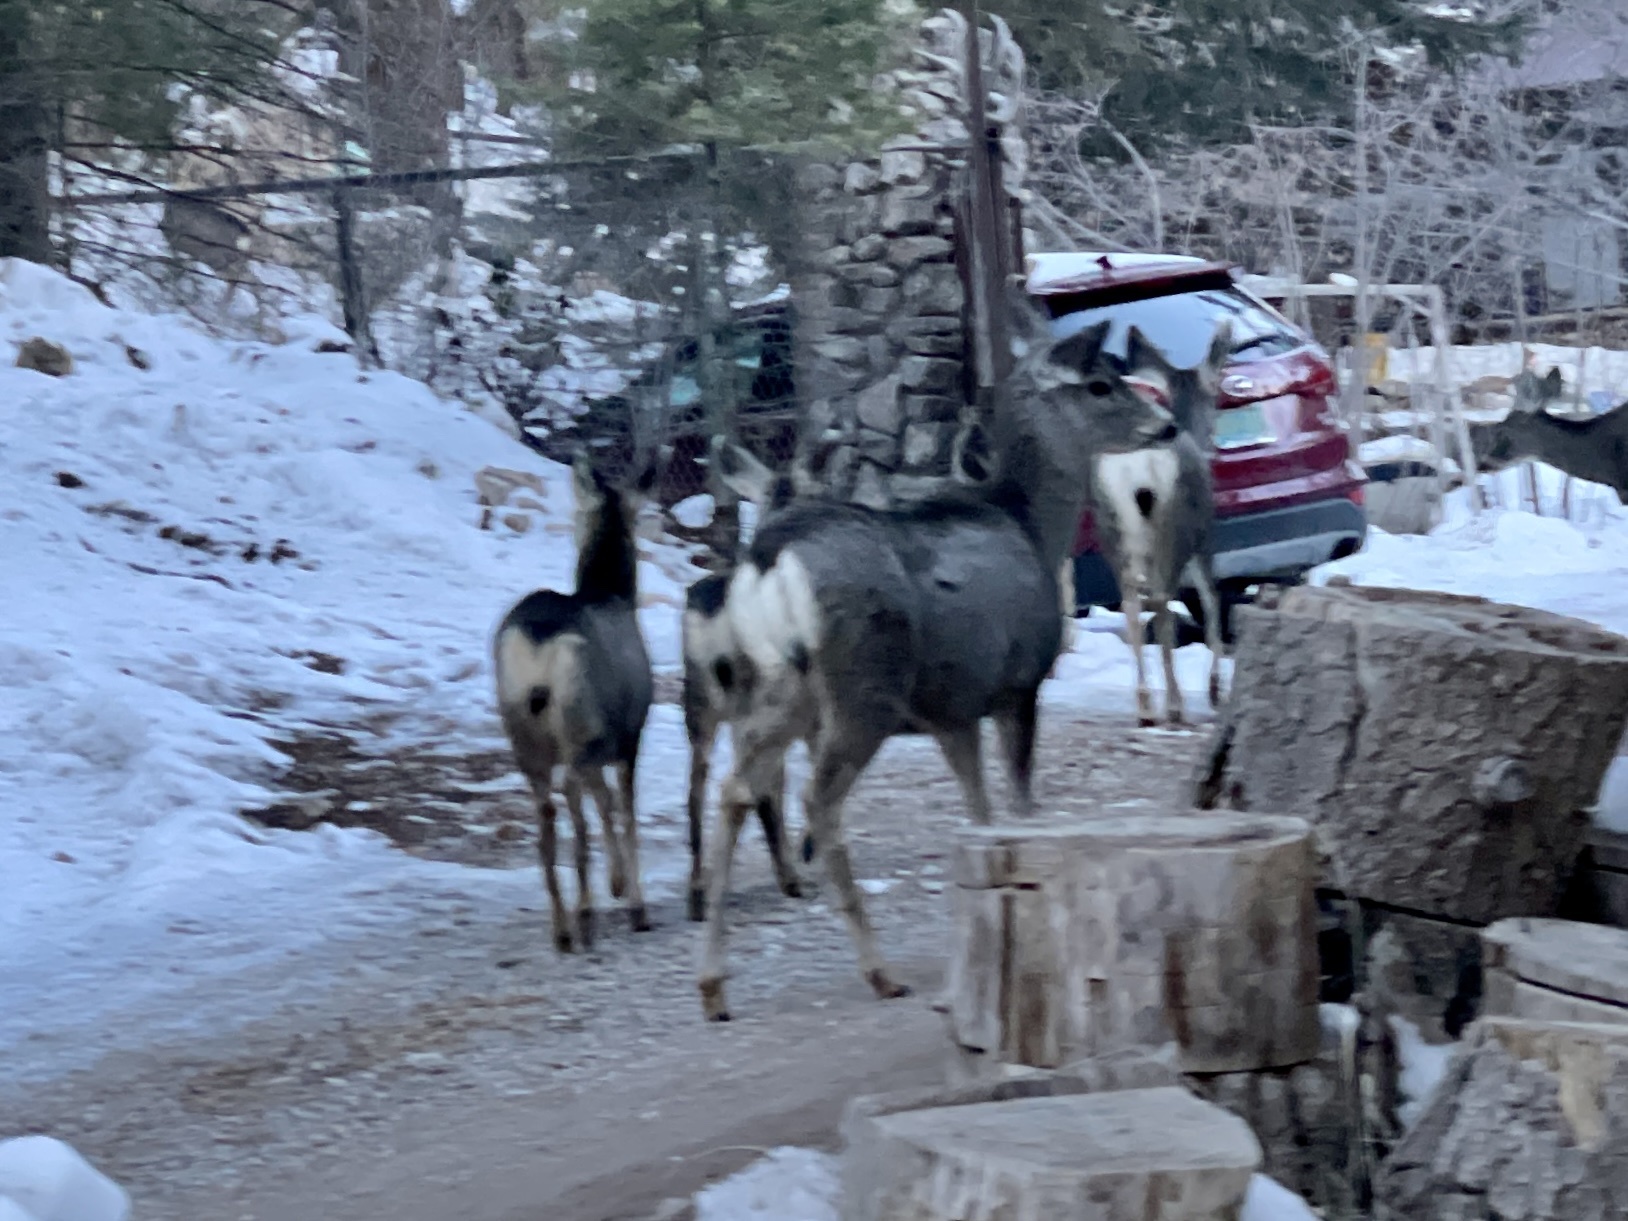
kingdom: Animalia
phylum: Chordata
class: Mammalia
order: Artiodactyla
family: Cervidae
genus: Odocoileus
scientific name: Odocoileus hemionus
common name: Mule deer
